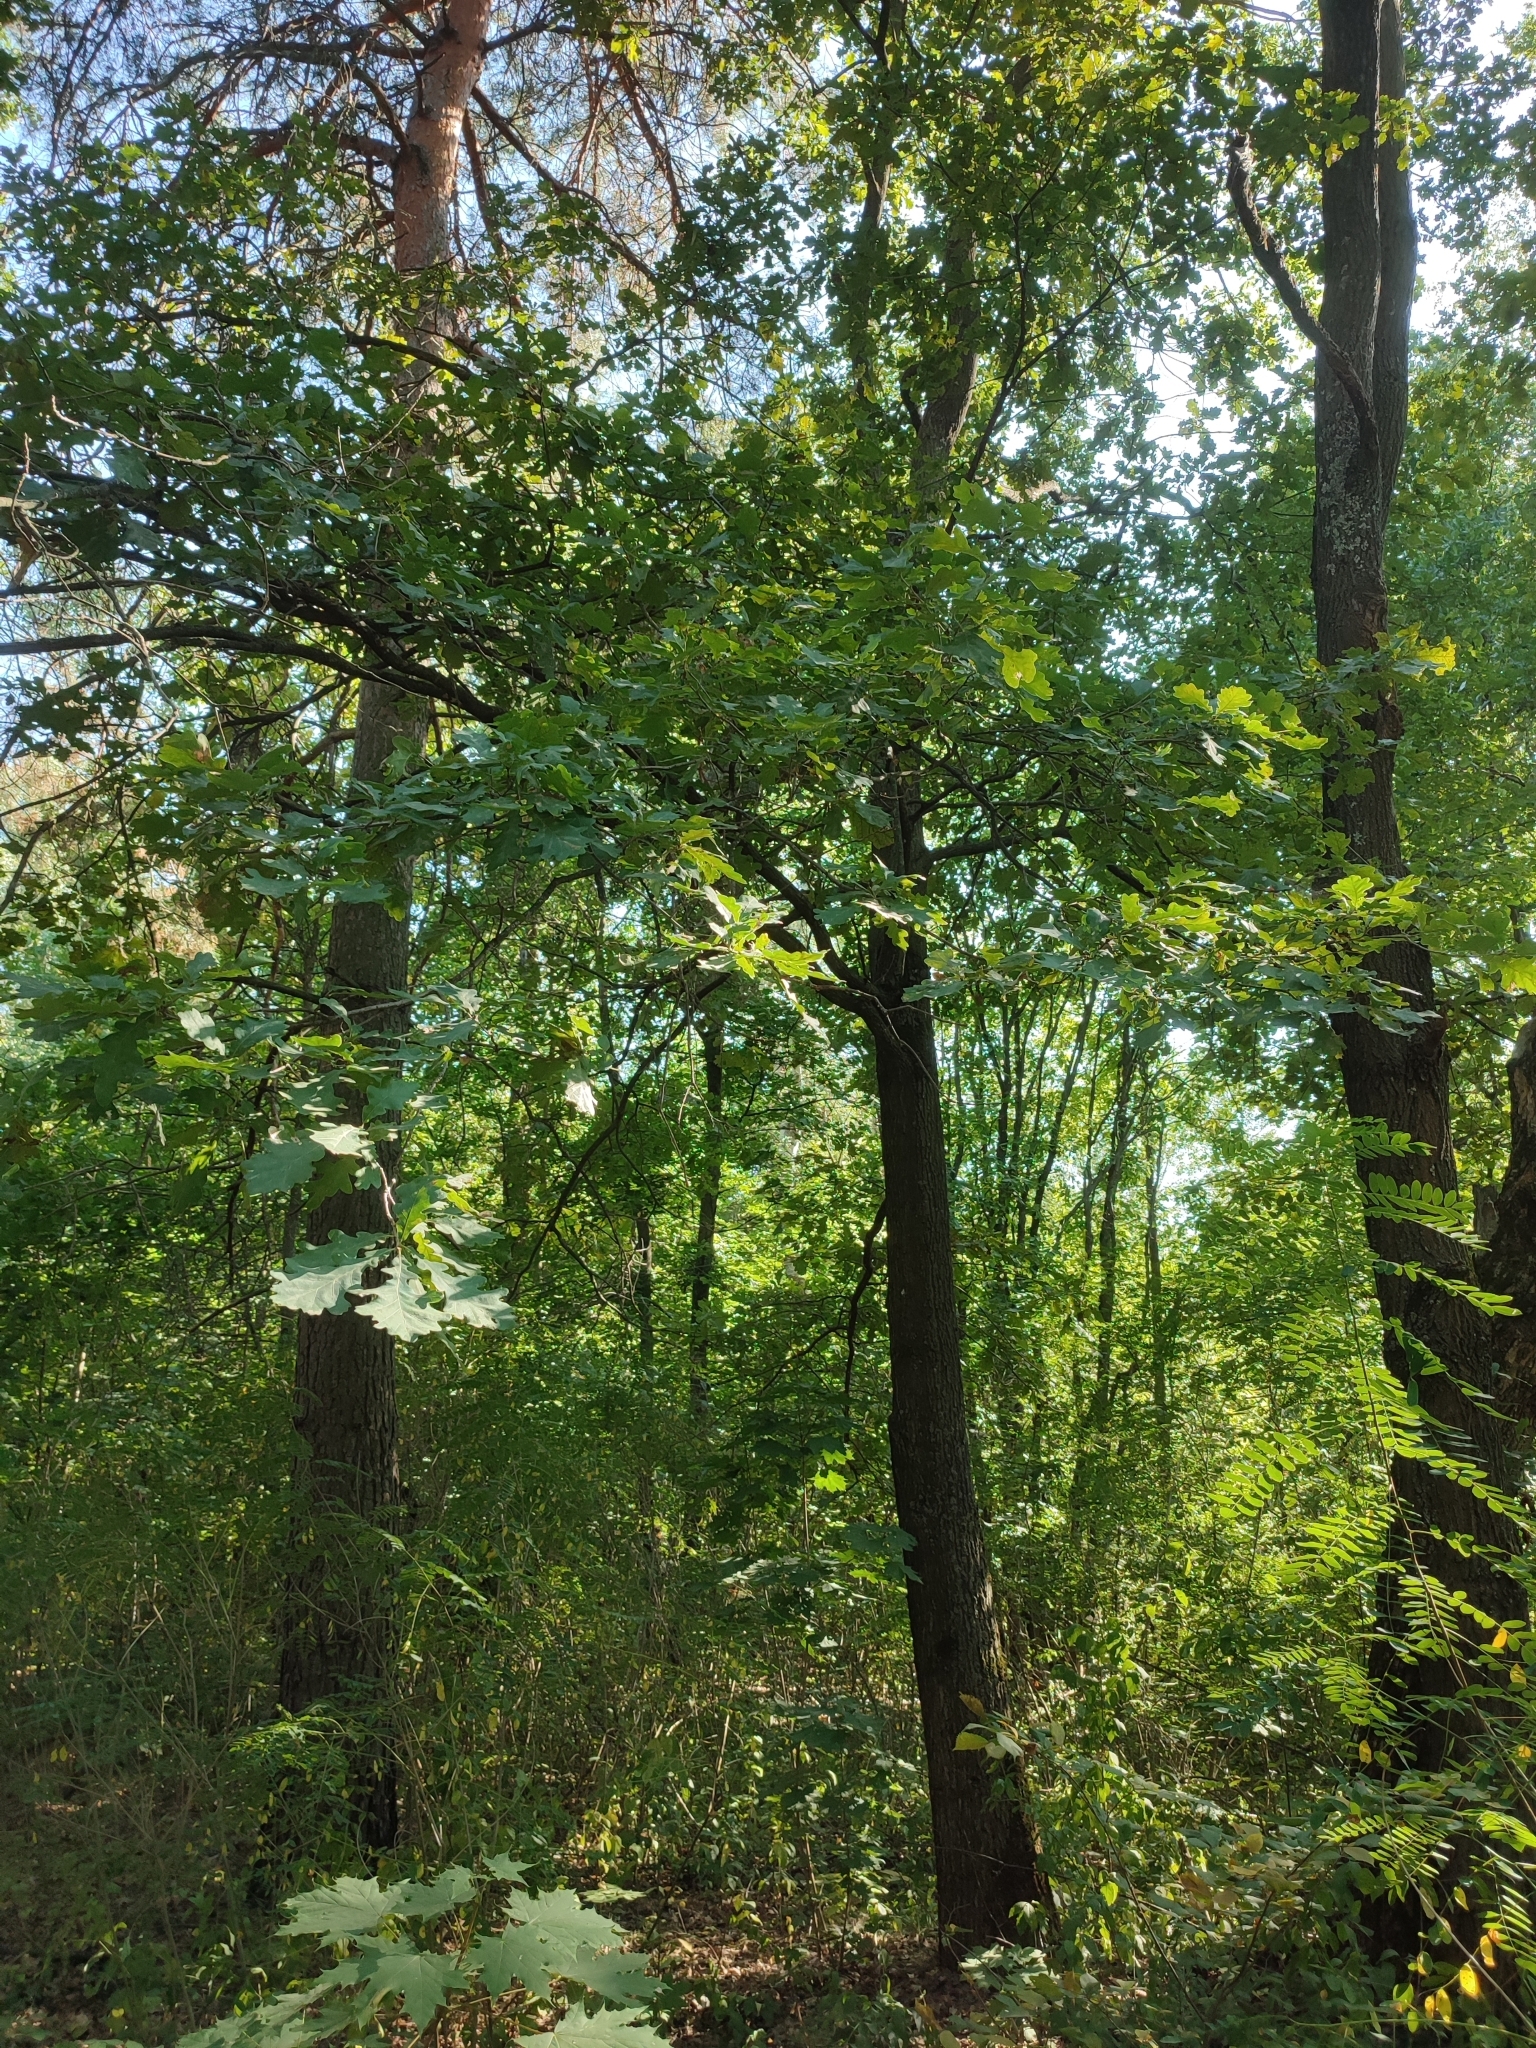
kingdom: Plantae
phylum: Tracheophyta
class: Magnoliopsida
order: Fagales
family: Fagaceae
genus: Quercus
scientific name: Quercus robur
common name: Pedunculate oak
